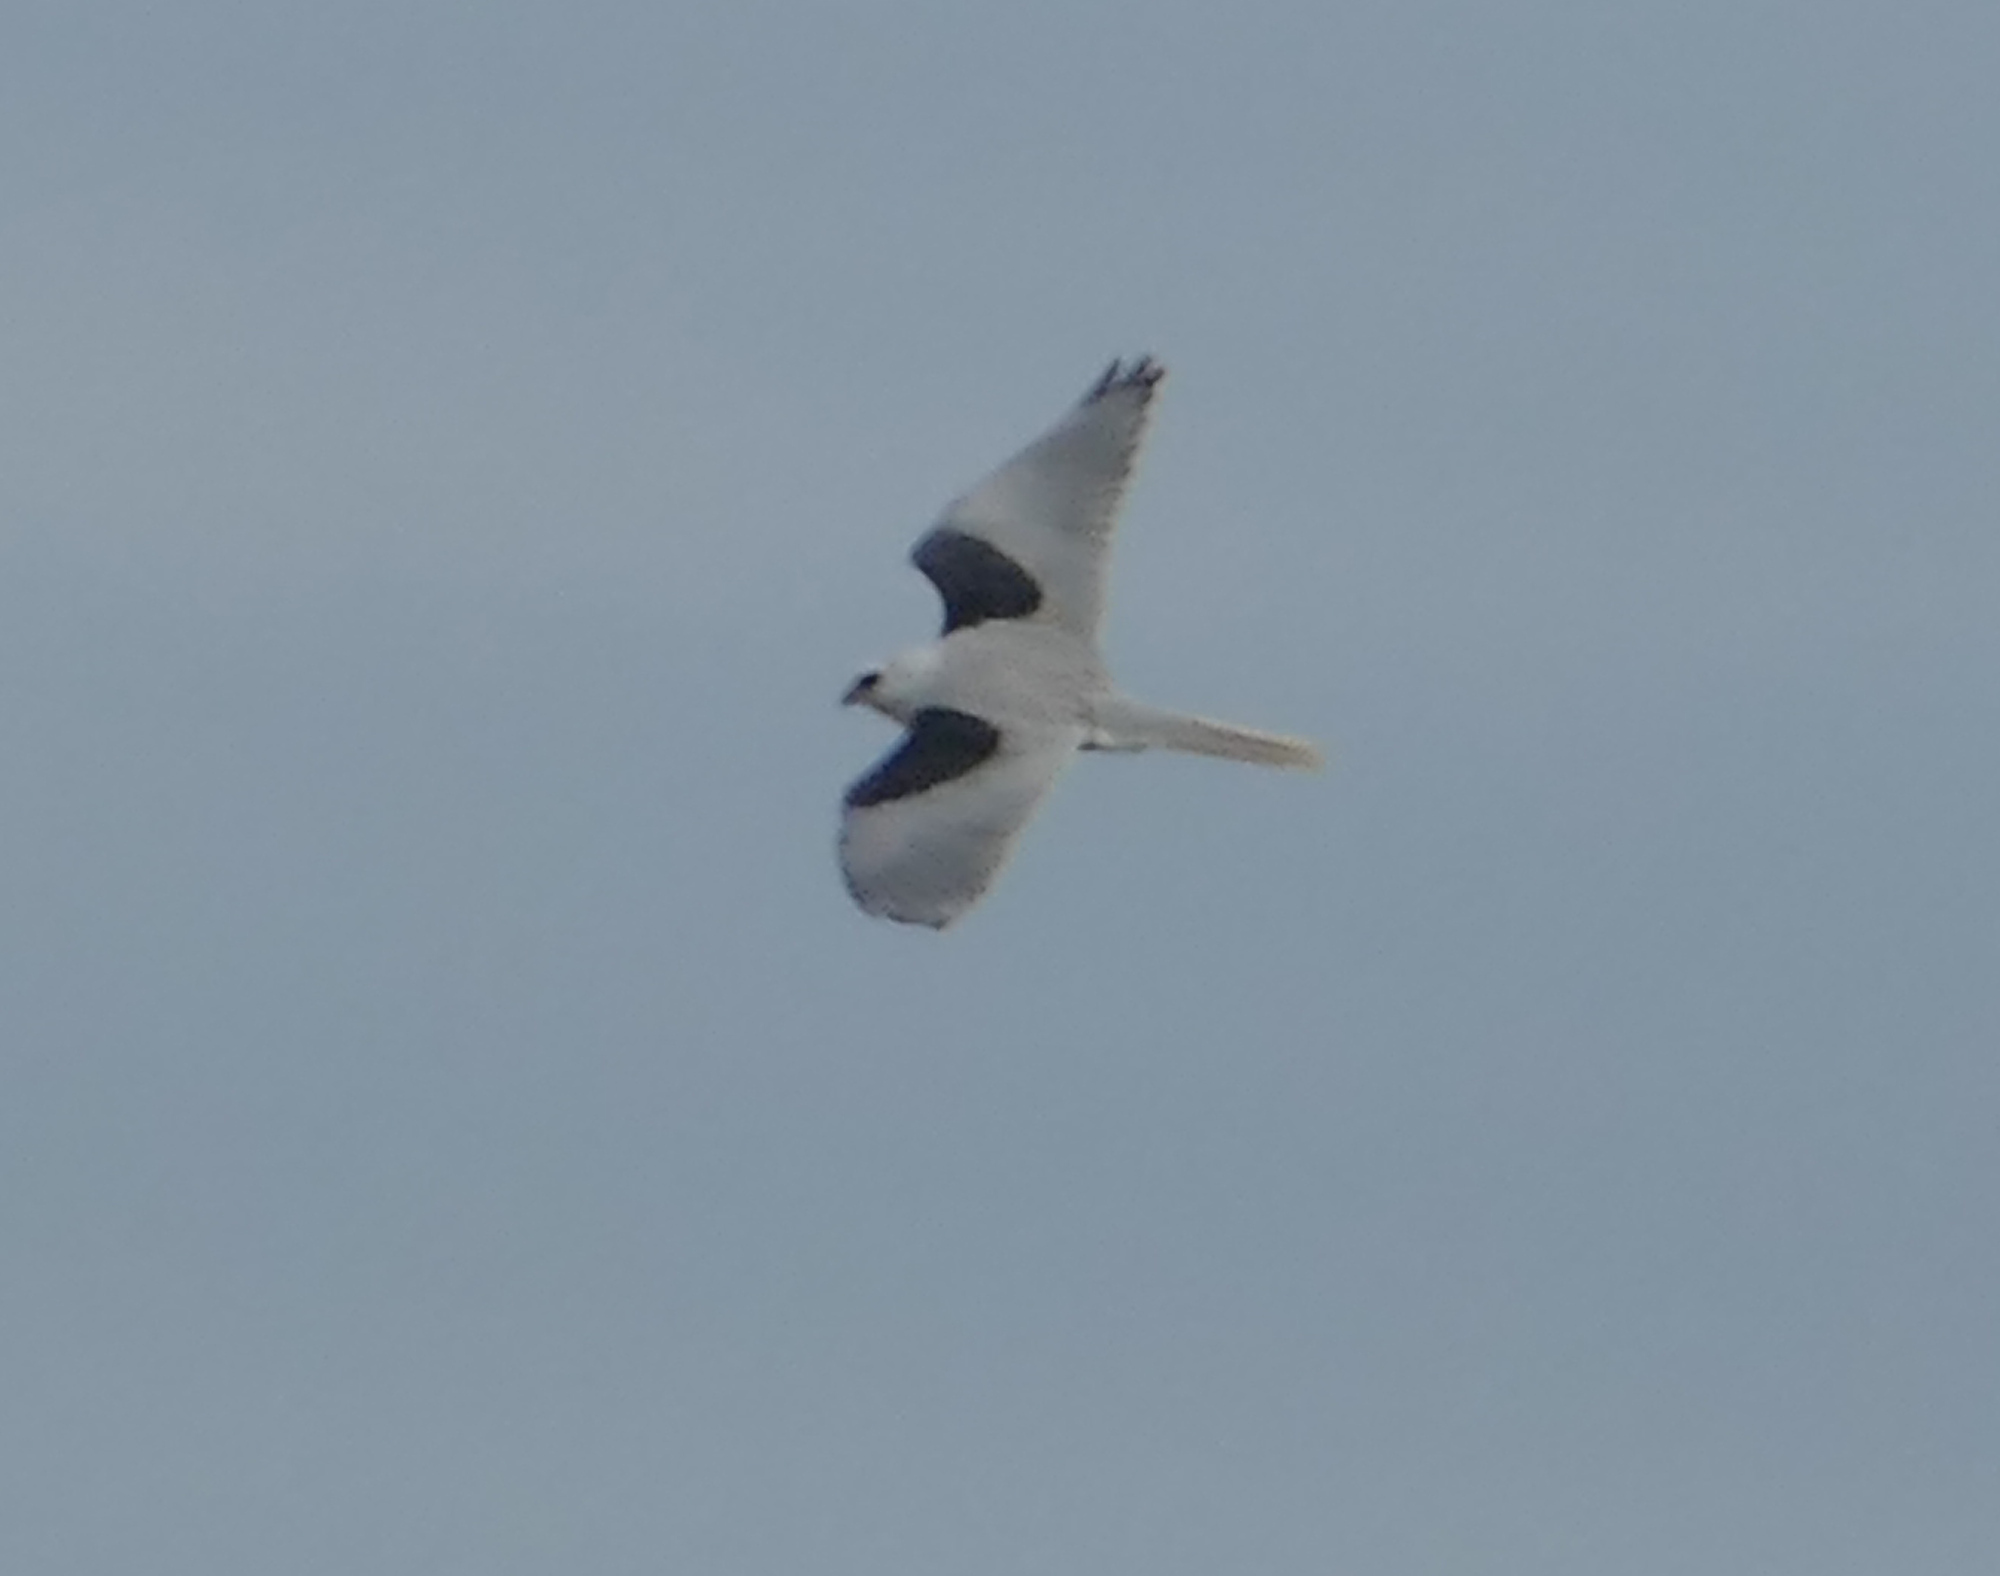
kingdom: Animalia
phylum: Chordata
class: Aves
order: Accipitriformes
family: Accipitridae
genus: Elanus
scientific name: Elanus leucurus
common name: White-tailed kite
